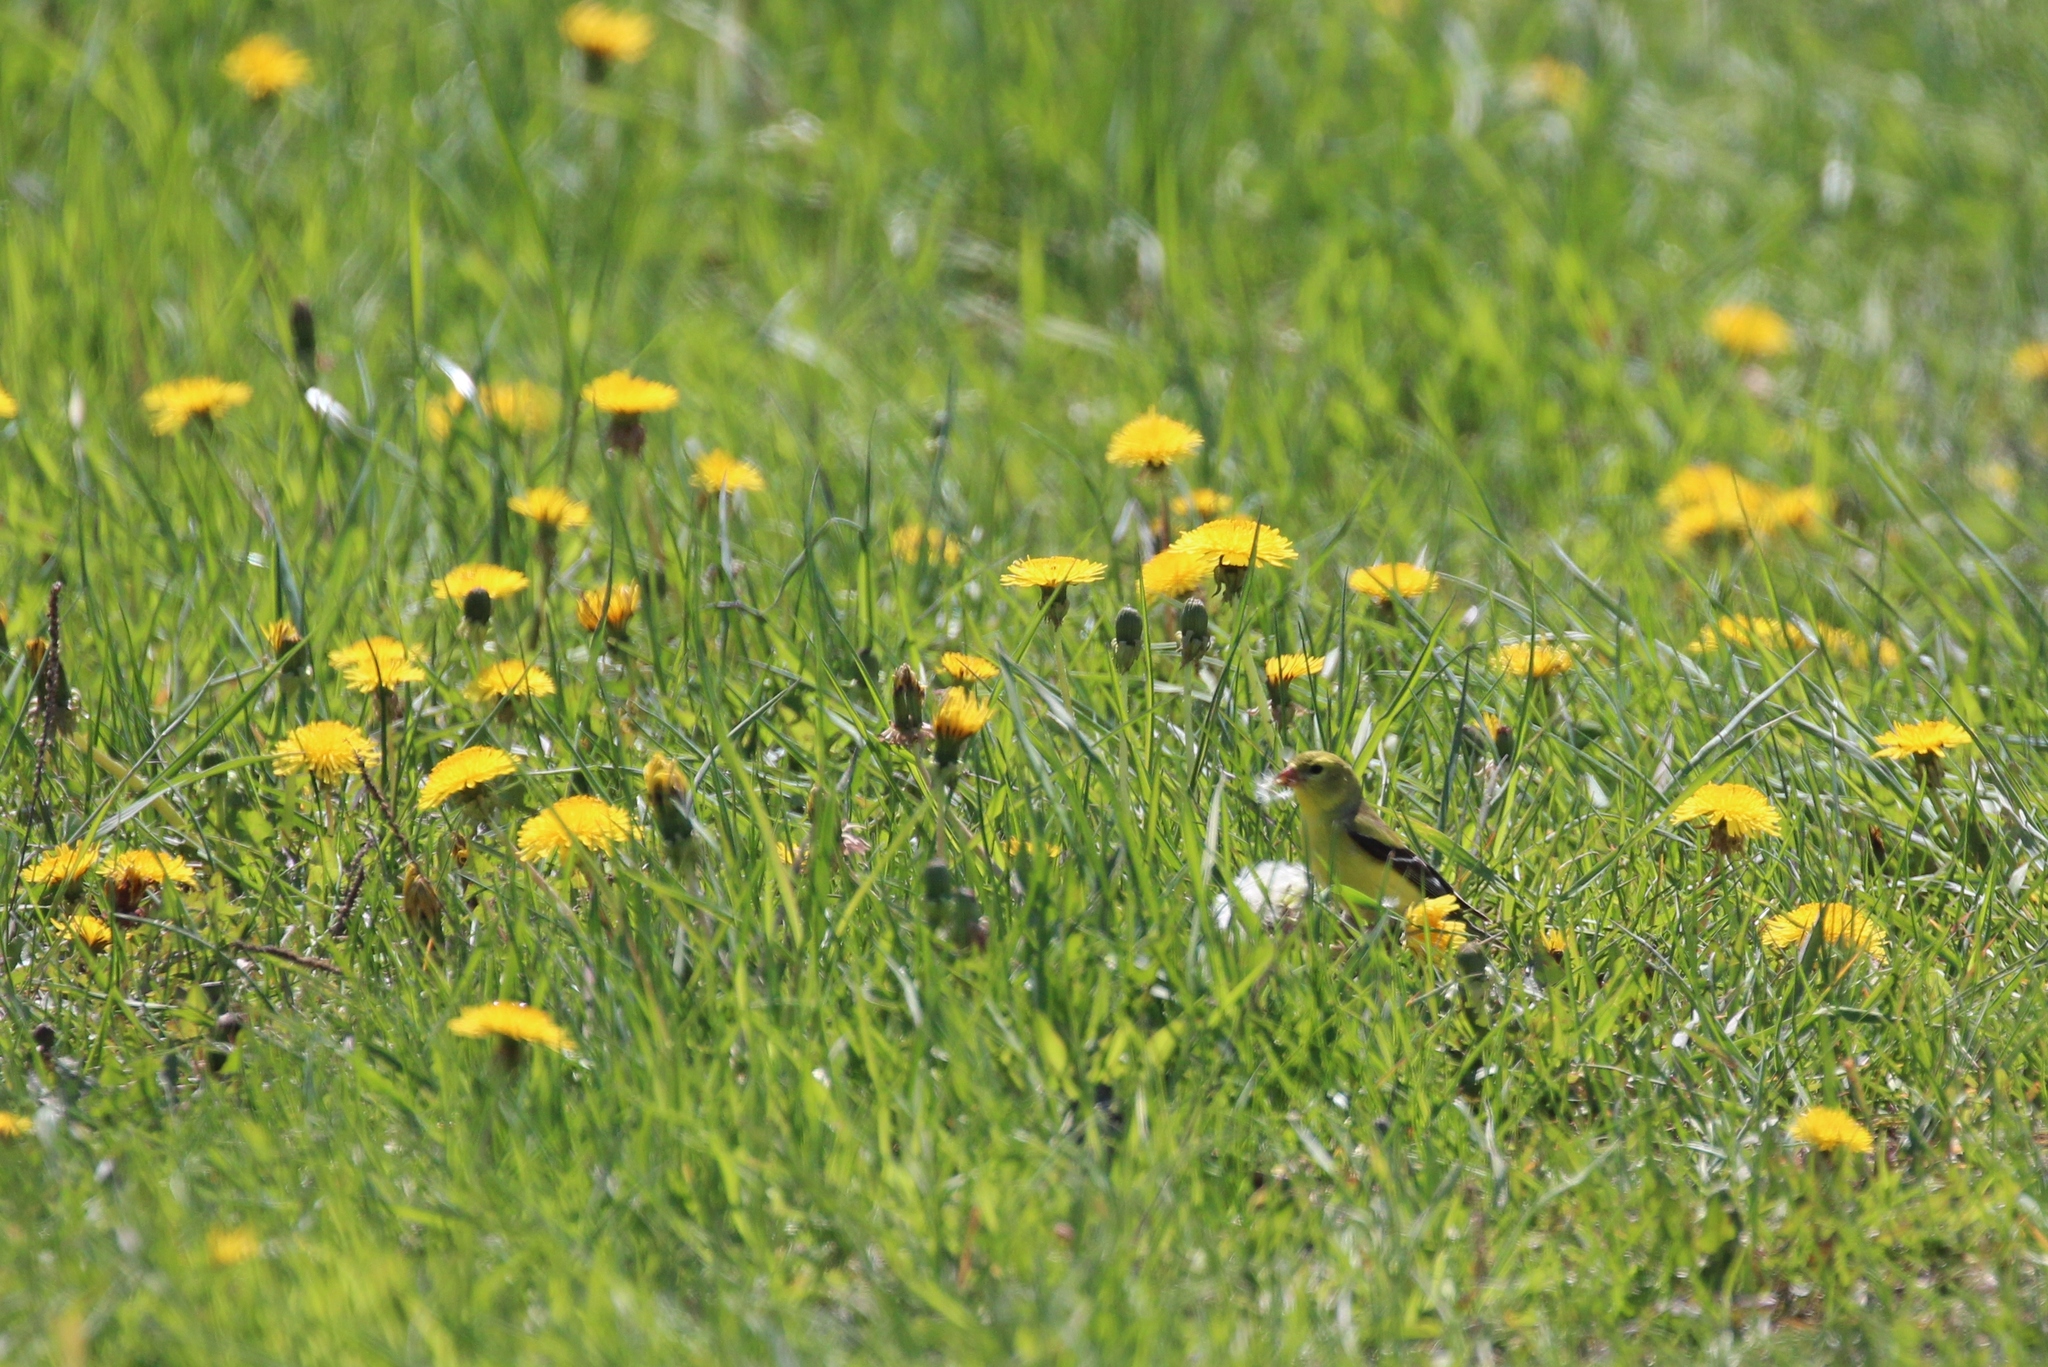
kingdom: Animalia
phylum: Chordata
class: Aves
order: Passeriformes
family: Fringillidae
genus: Spinus
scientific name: Spinus tristis
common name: American goldfinch
